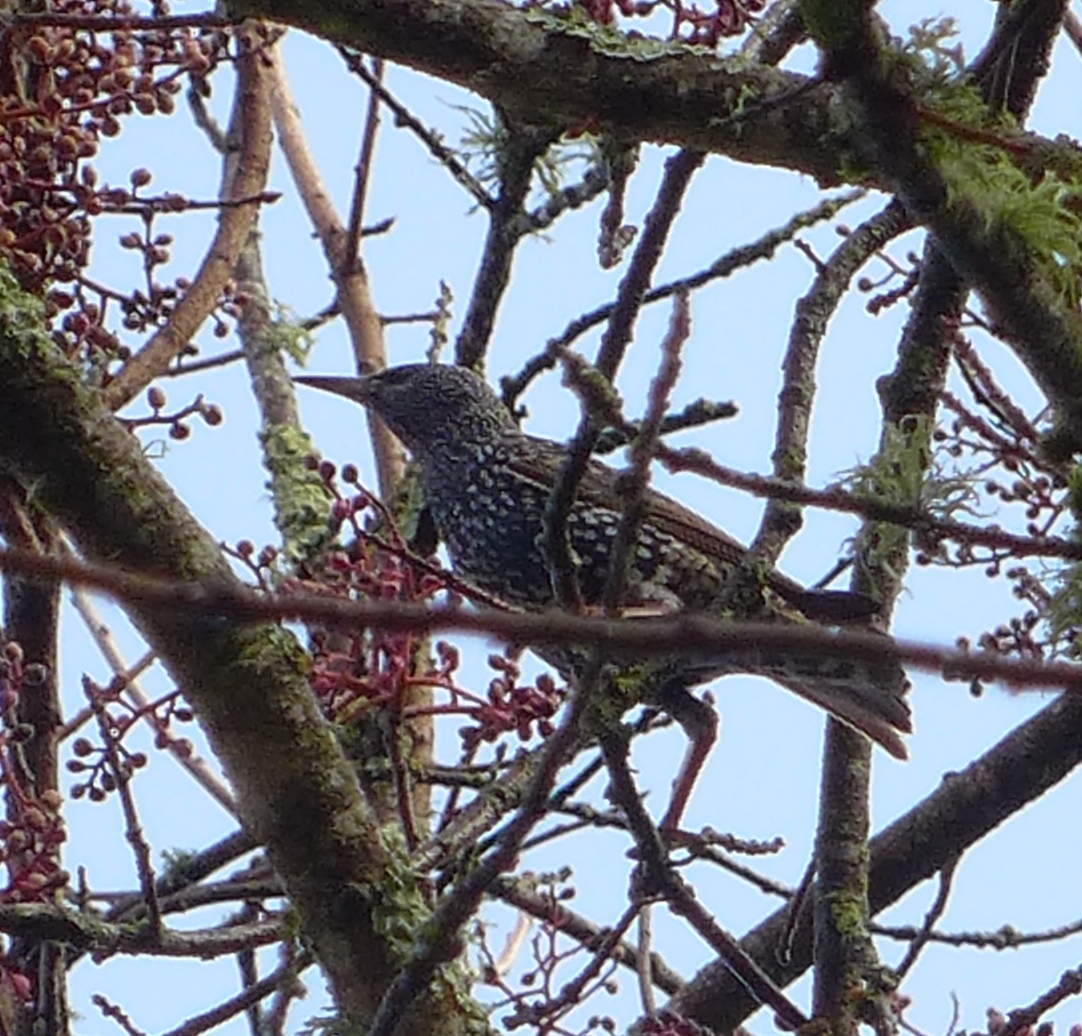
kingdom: Animalia
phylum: Chordata
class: Aves
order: Passeriformes
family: Sturnidae
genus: Sturnus
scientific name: Sturnus vulgaris
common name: Common starling
